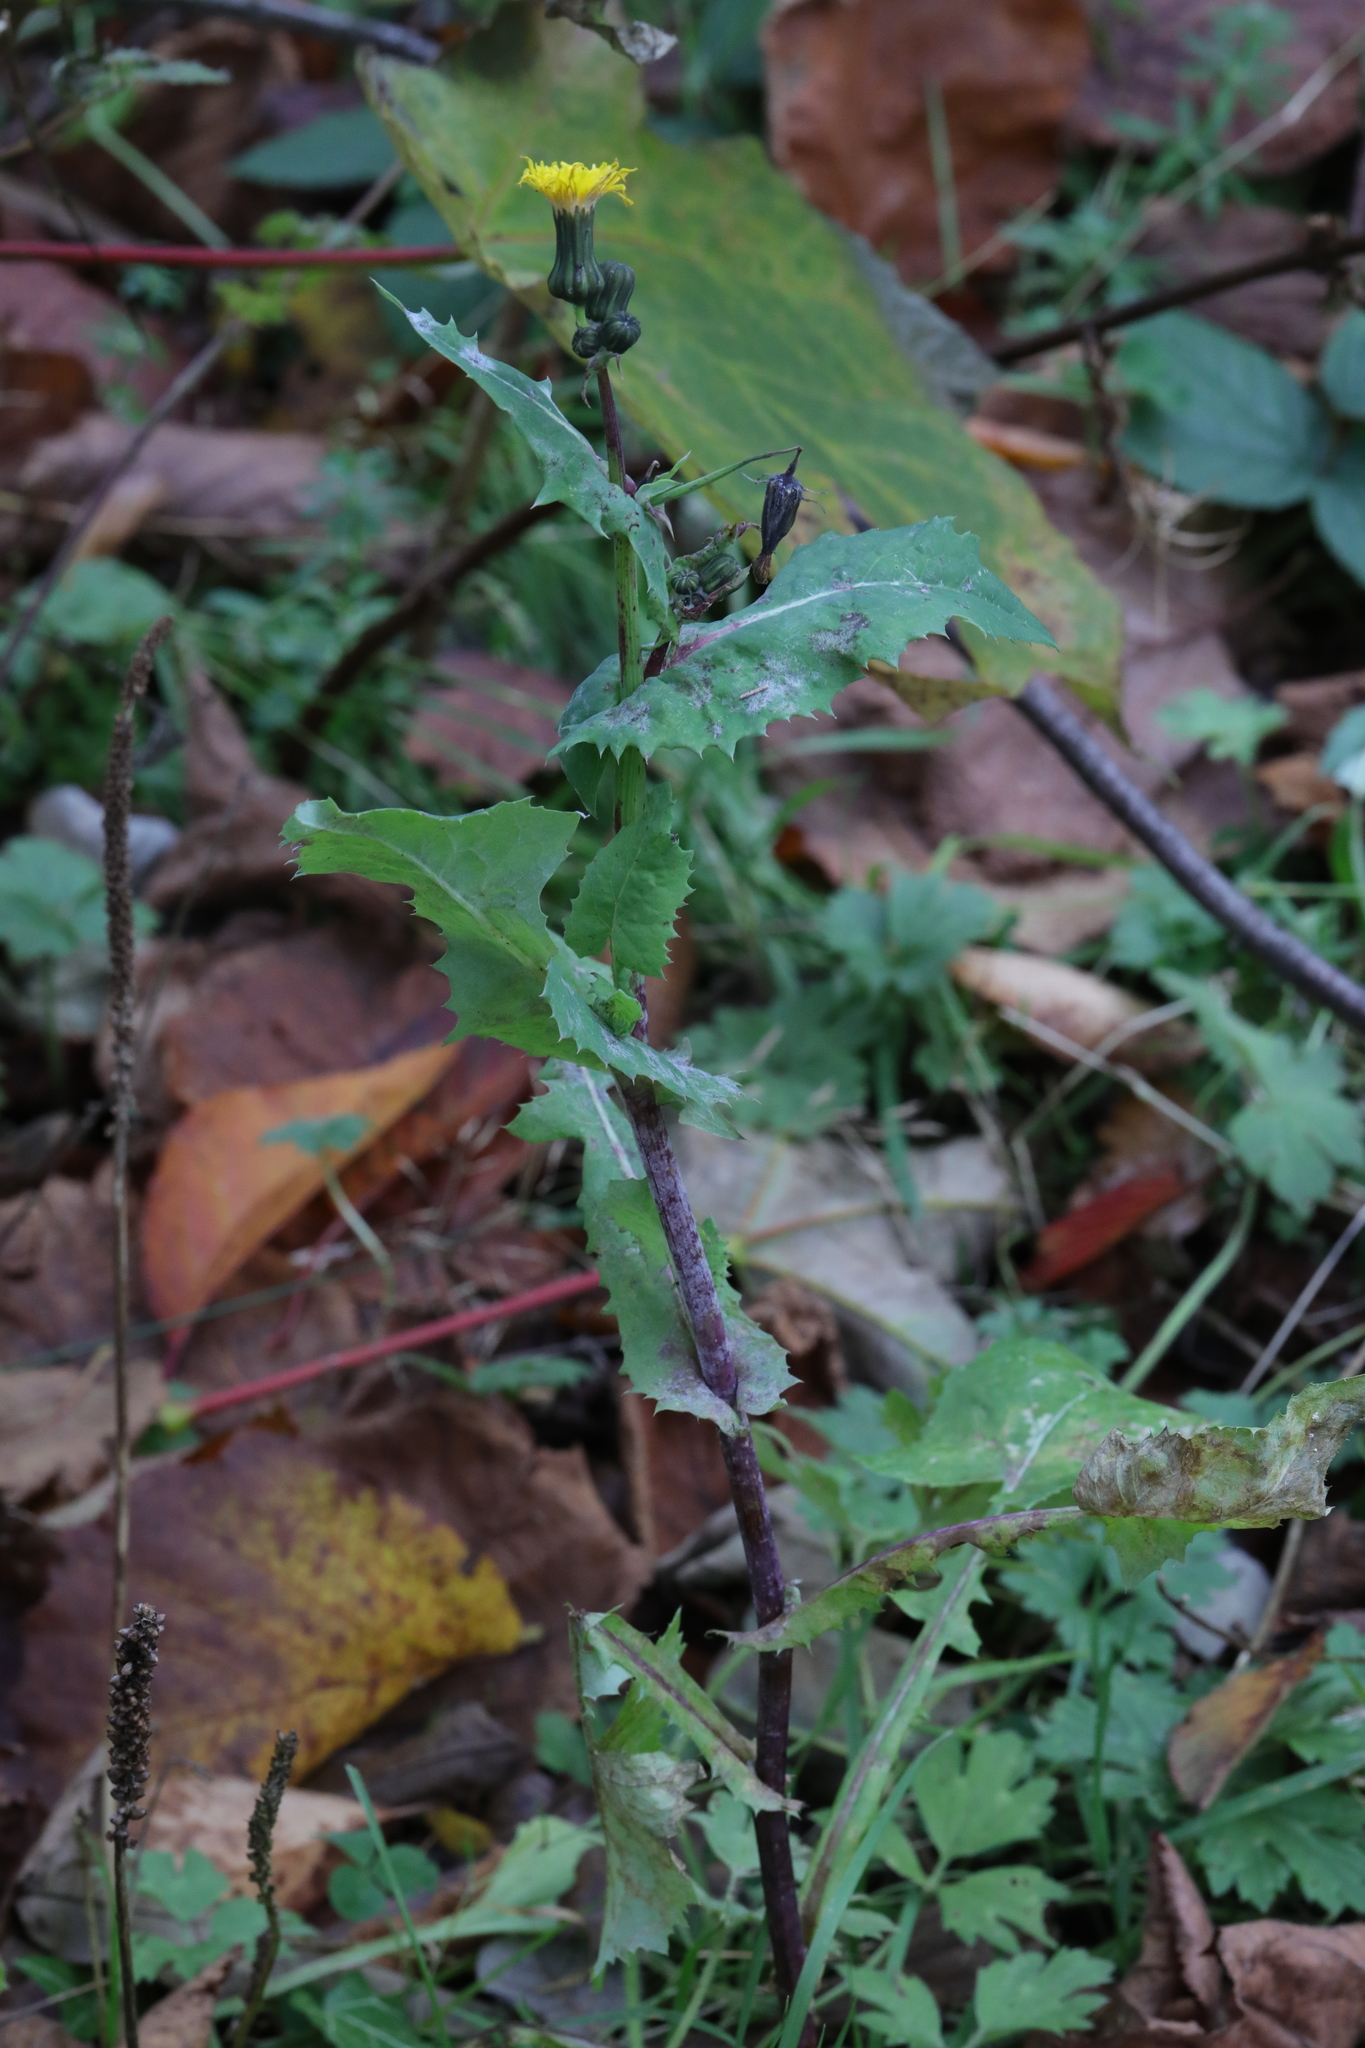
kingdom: Plantae
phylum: Tracheophyta
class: Magnoliopsida
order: Asterales
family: Asteraceae
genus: Sonchus
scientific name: Sonchus asper
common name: Prickly sow-thistle
